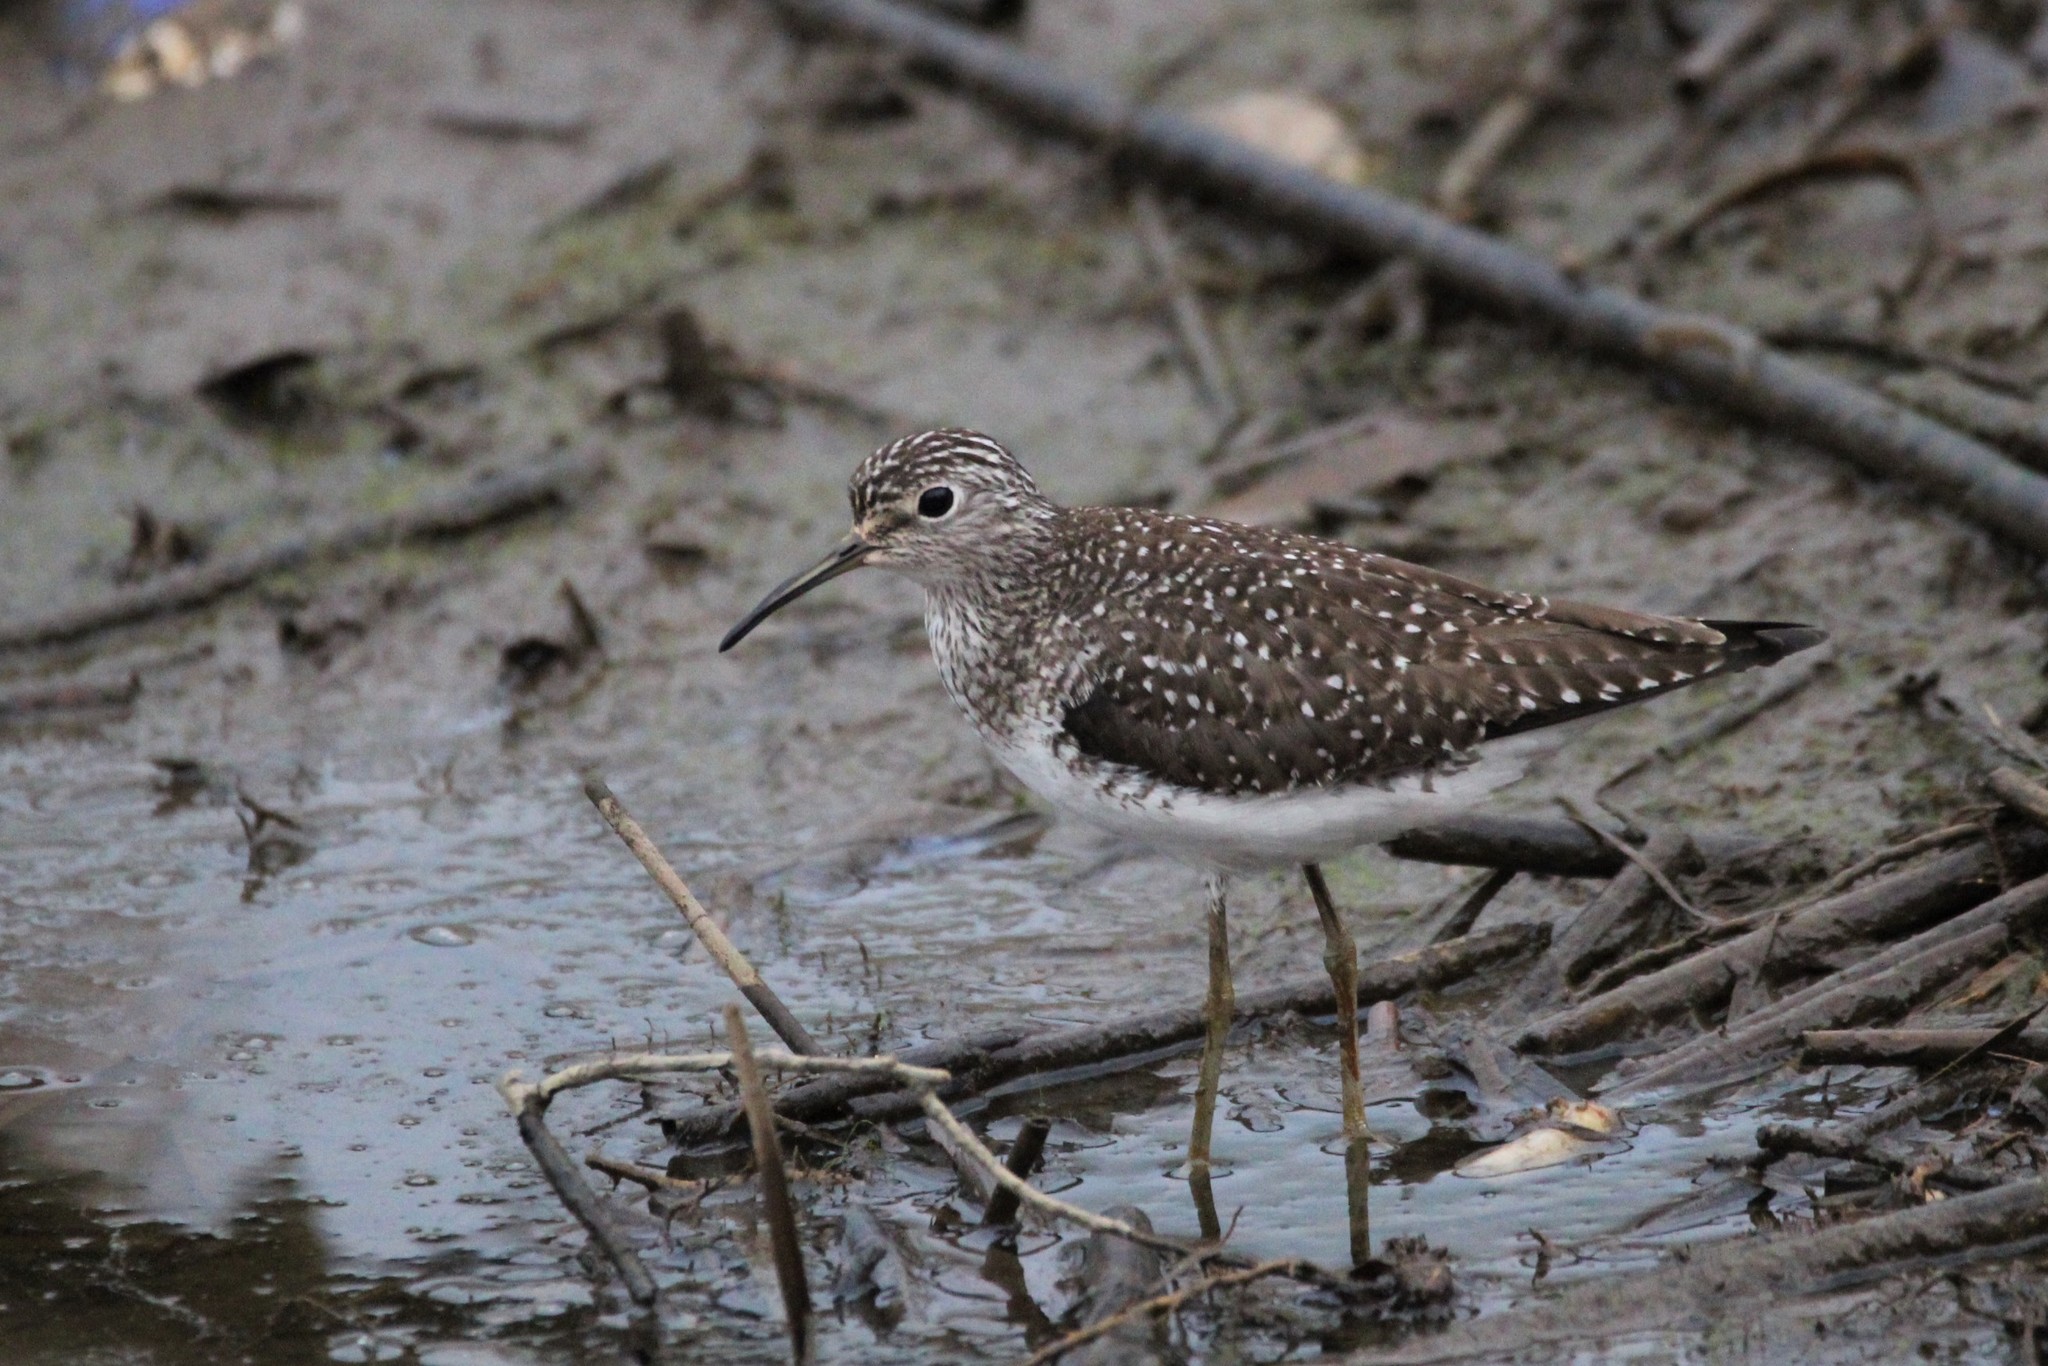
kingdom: Animalia
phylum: Chordata
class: Aves
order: Charadriiformes
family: Scolopacidae
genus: Tringa
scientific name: Tringa solitaria
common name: Solitary sandpiper
